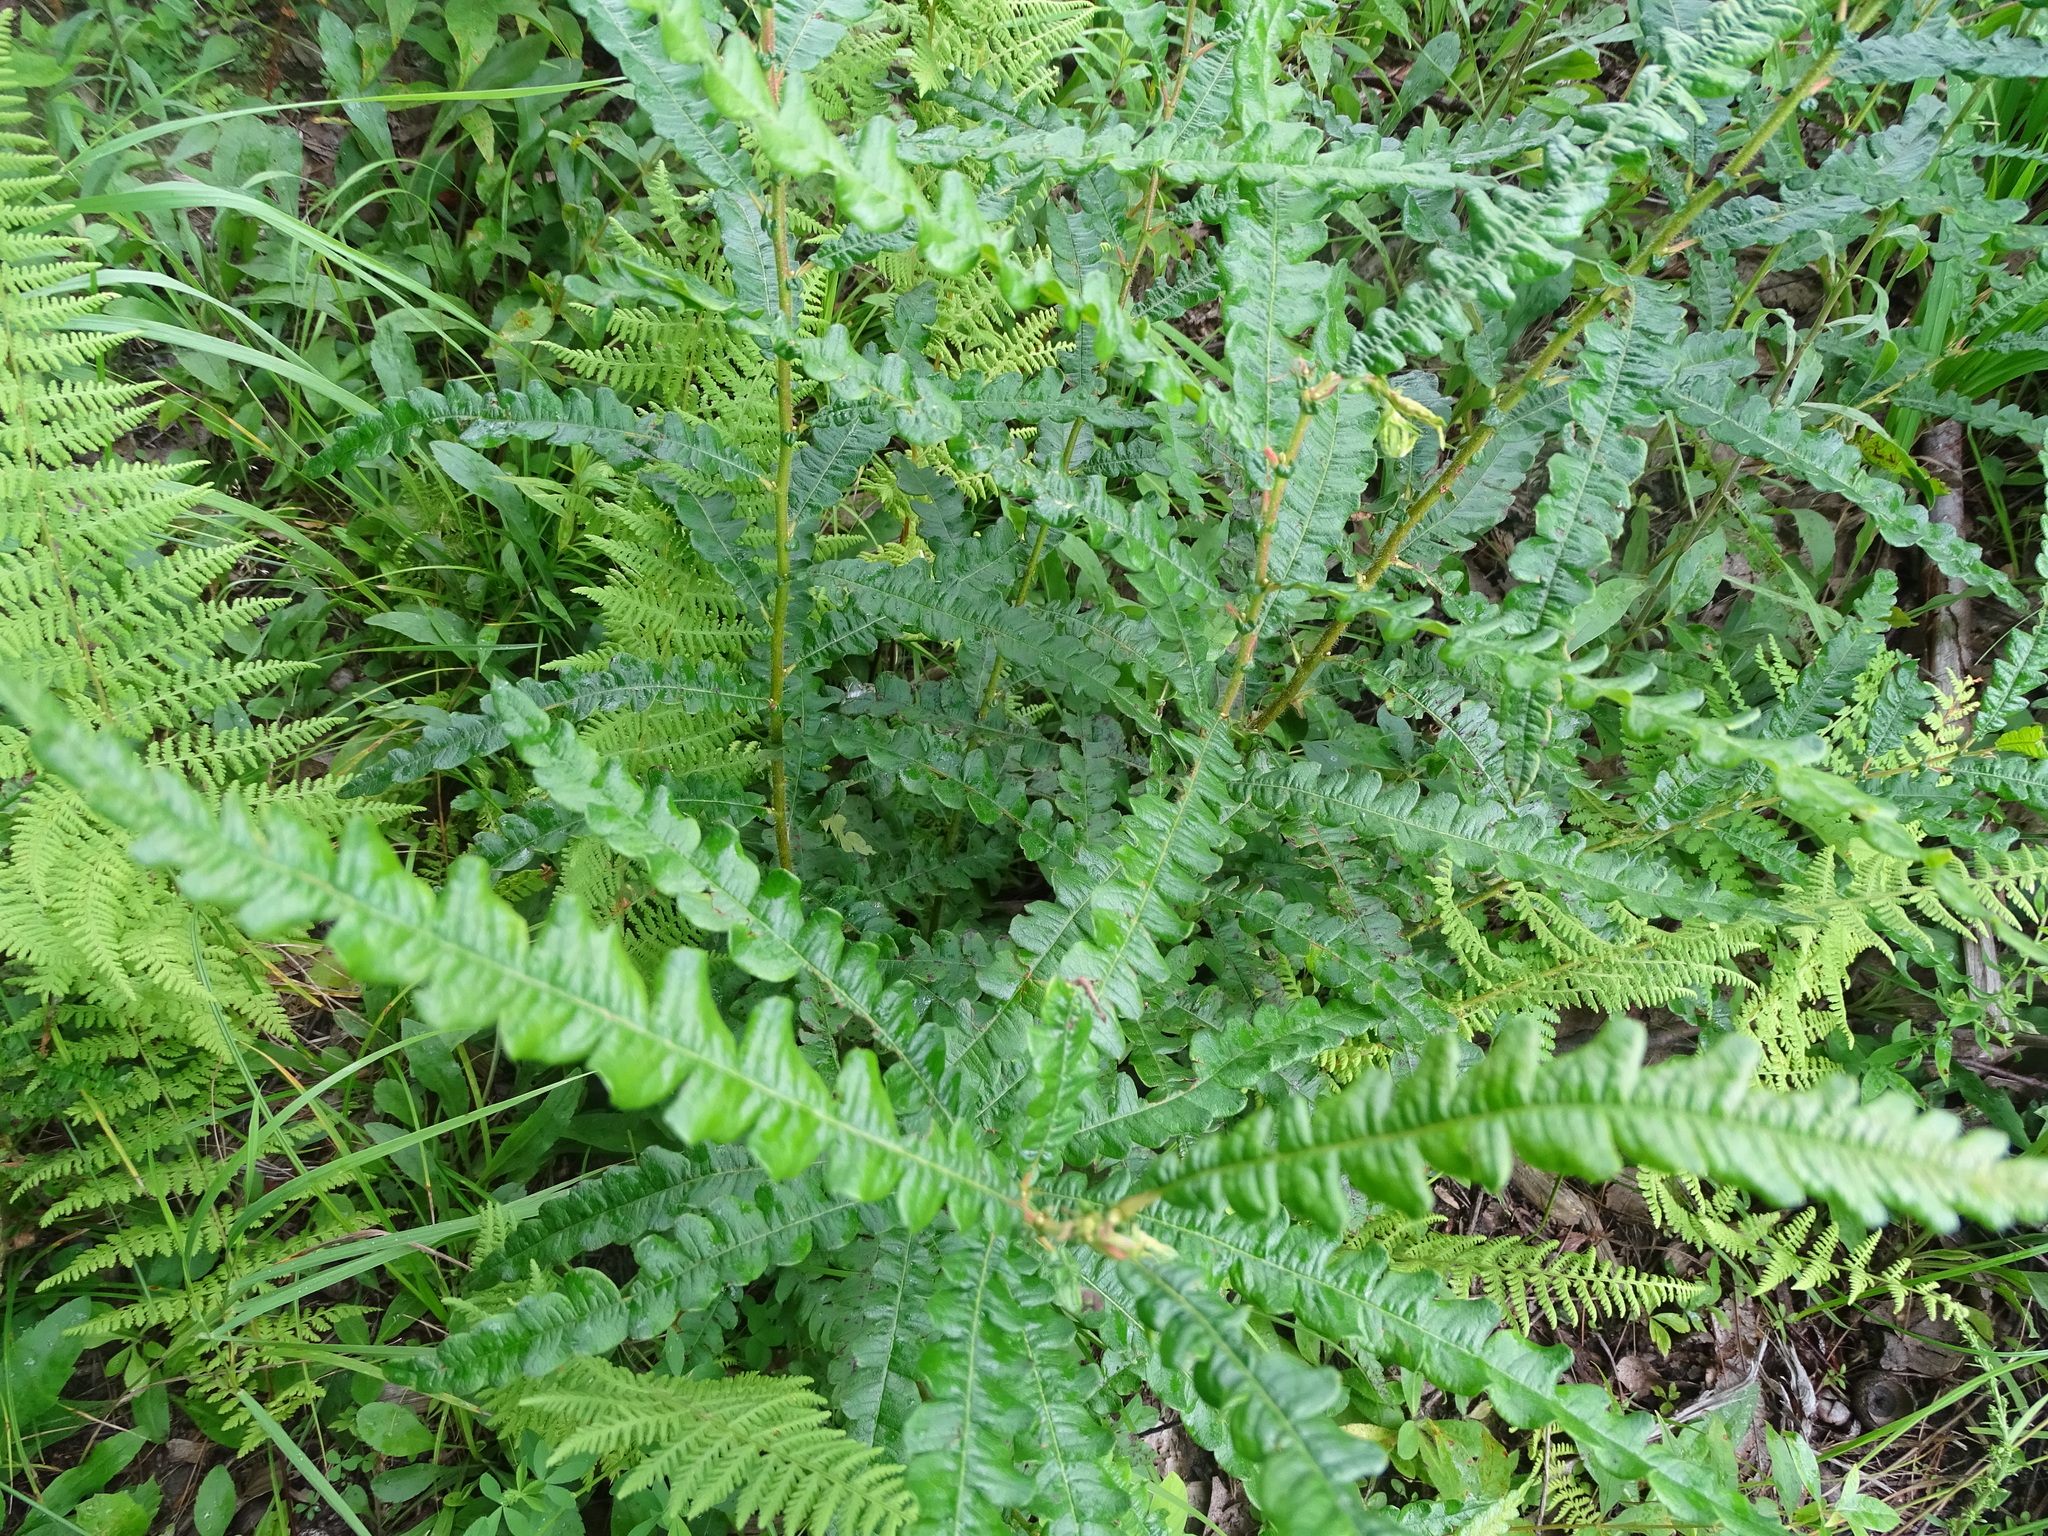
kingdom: Plantae
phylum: Tracheophyta
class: Magnoliopsida
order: Fagales
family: Myricaceae
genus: Comptonia
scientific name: Comptonia peregrina
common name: Sweet-fern
